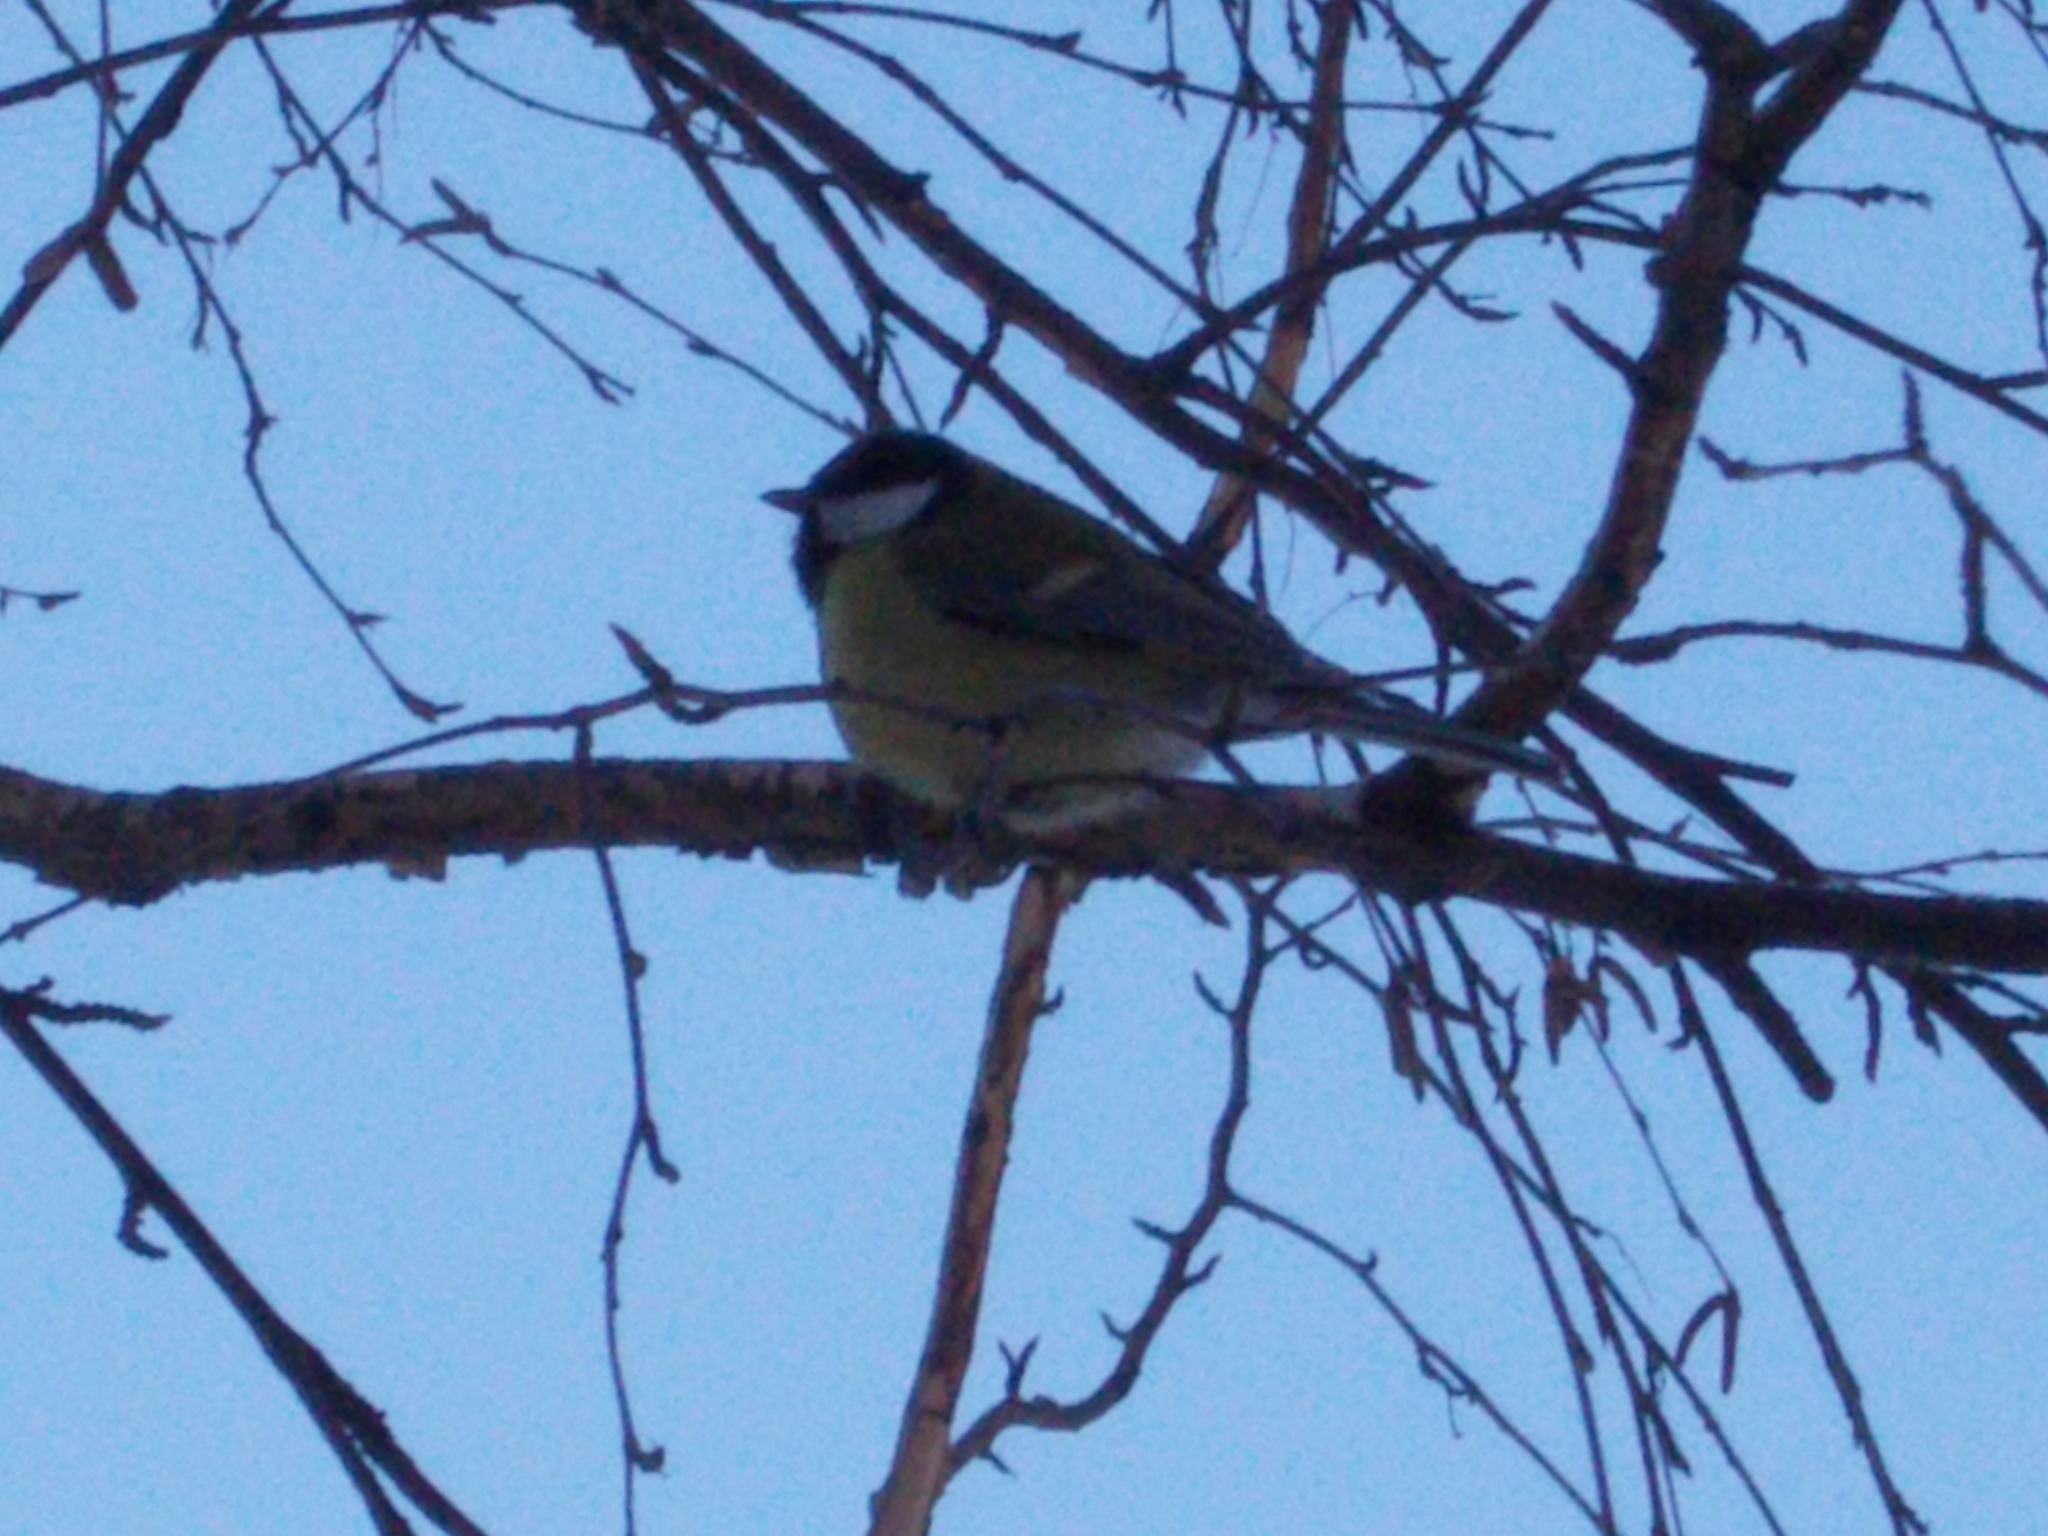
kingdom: Animalia
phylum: Chordata
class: Aves
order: Passeriformes
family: Paridae
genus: Parus
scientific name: Parus major
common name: Great tit
